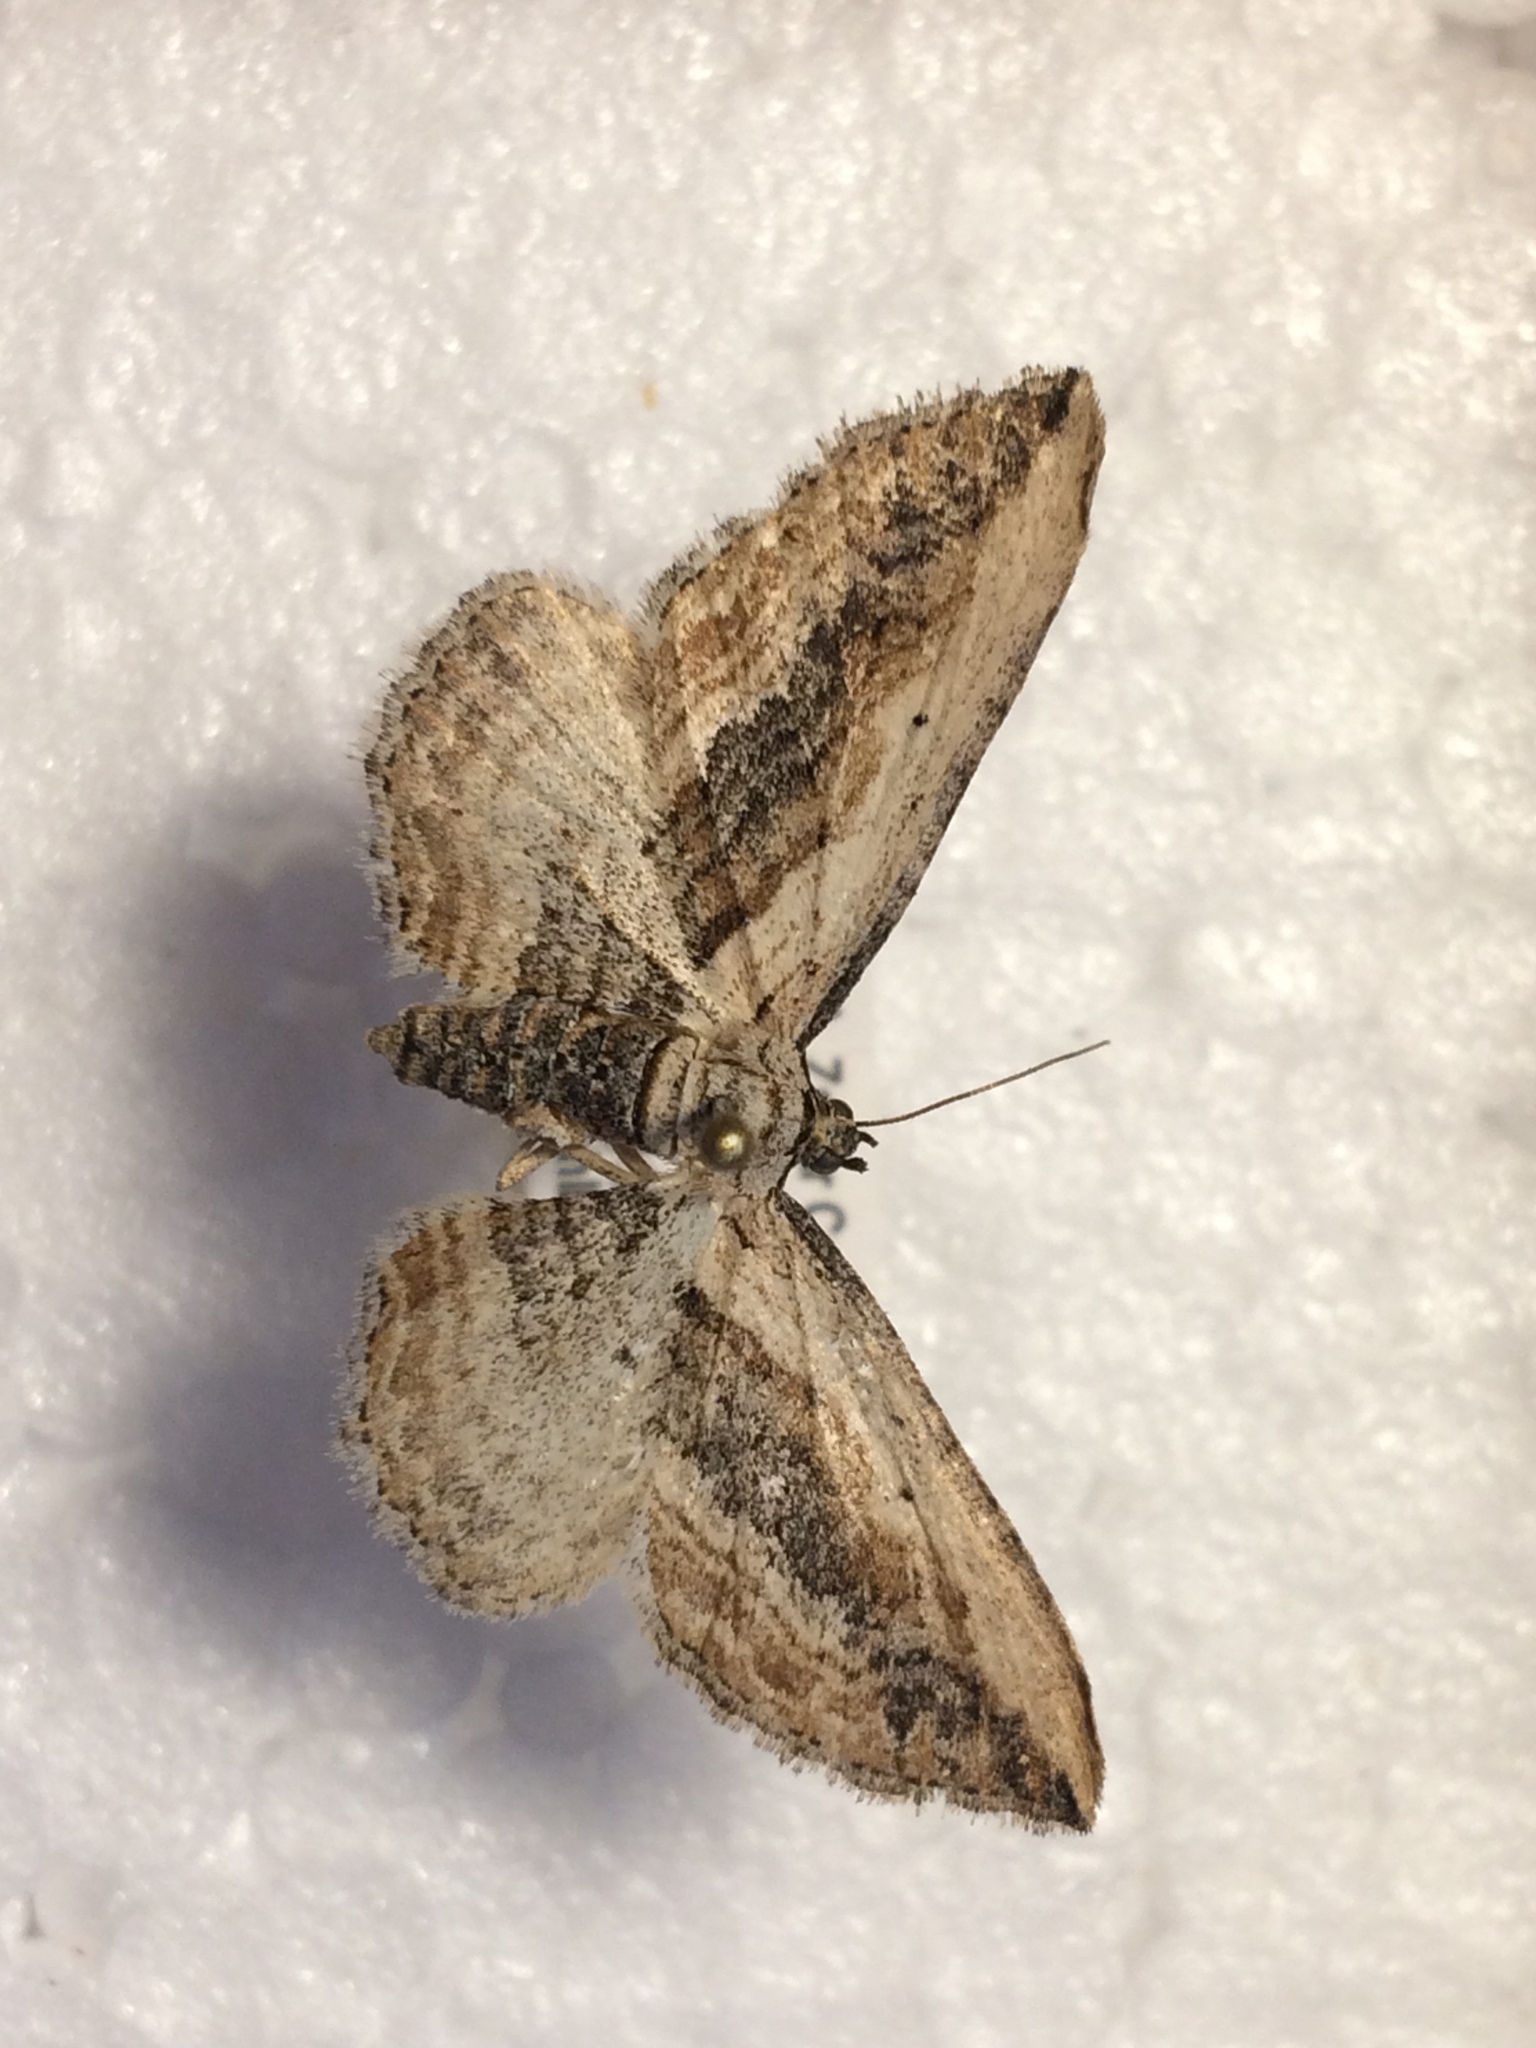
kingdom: Animalia
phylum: Arthropoda
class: Insecta
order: Lepidoptera
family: Geometridae
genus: Horisme
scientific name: Horisme vitalbata
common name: Small waved umber
